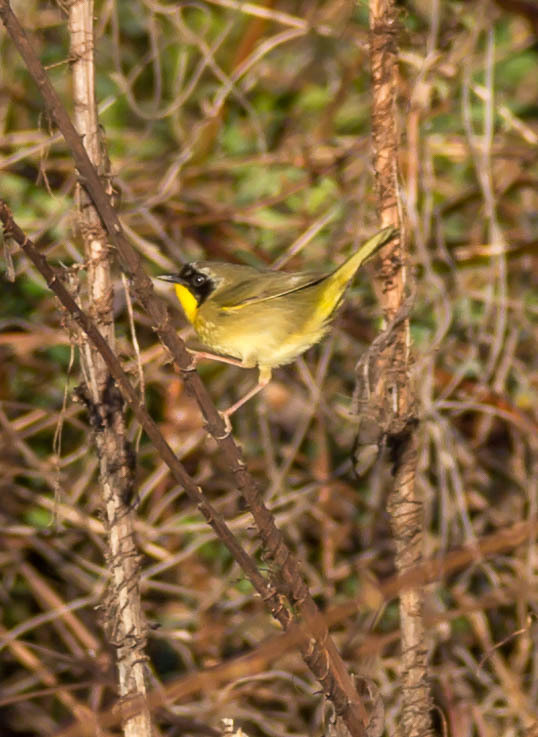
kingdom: Animalia
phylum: Chordata
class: Aves
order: Passeriformes
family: Parulidae
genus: Geothlypis
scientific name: Geothlypis trichas
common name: Common yellowthroat
